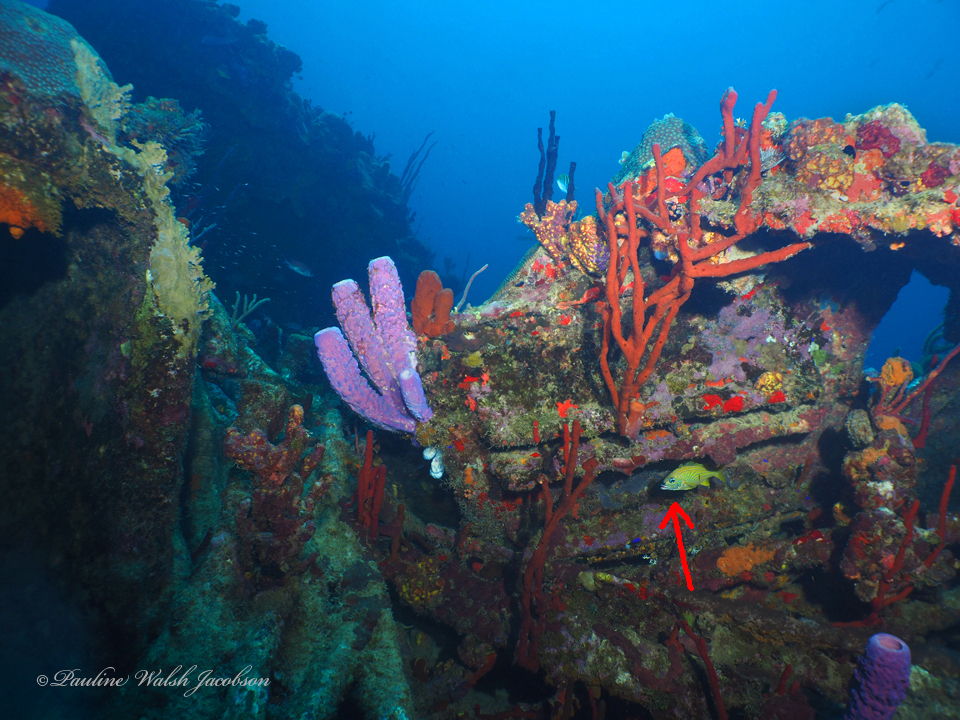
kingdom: Animalia
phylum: Chordata
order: Perciformes
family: Haemulidae
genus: Haemulon
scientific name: Haemulon flavolineatum
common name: French grunt
